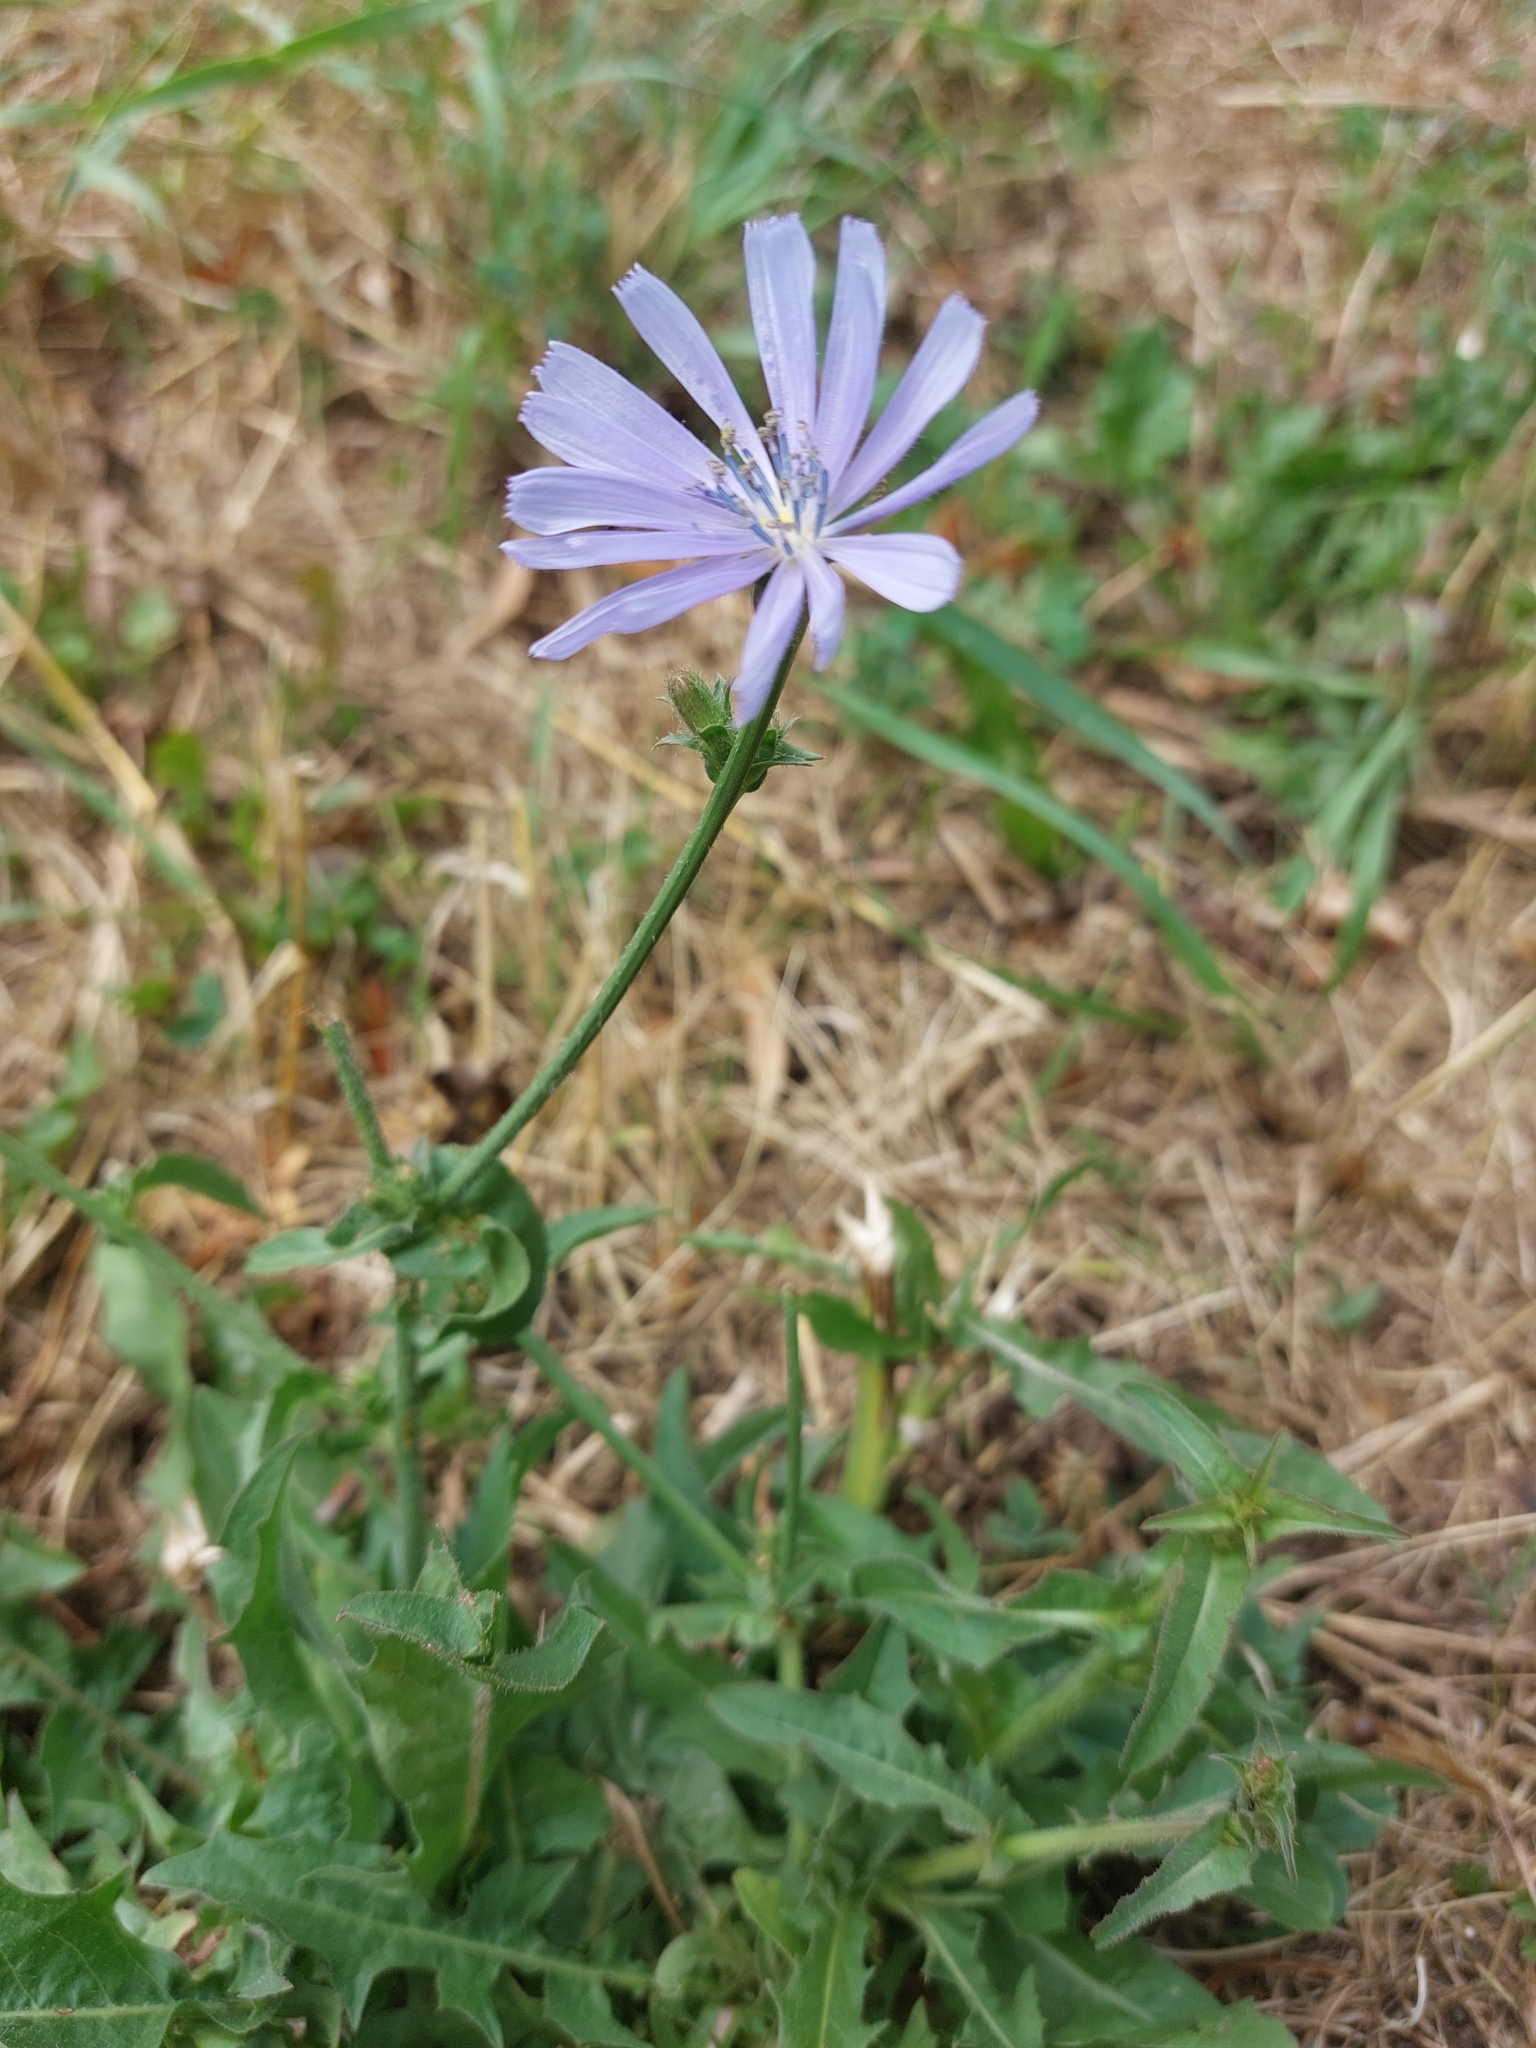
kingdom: Plantae
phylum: Tracheophyta
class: Magnoliopsida
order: Asterales
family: Asteraceae
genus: Cichorium
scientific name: Cichorium intybus
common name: Chicory
